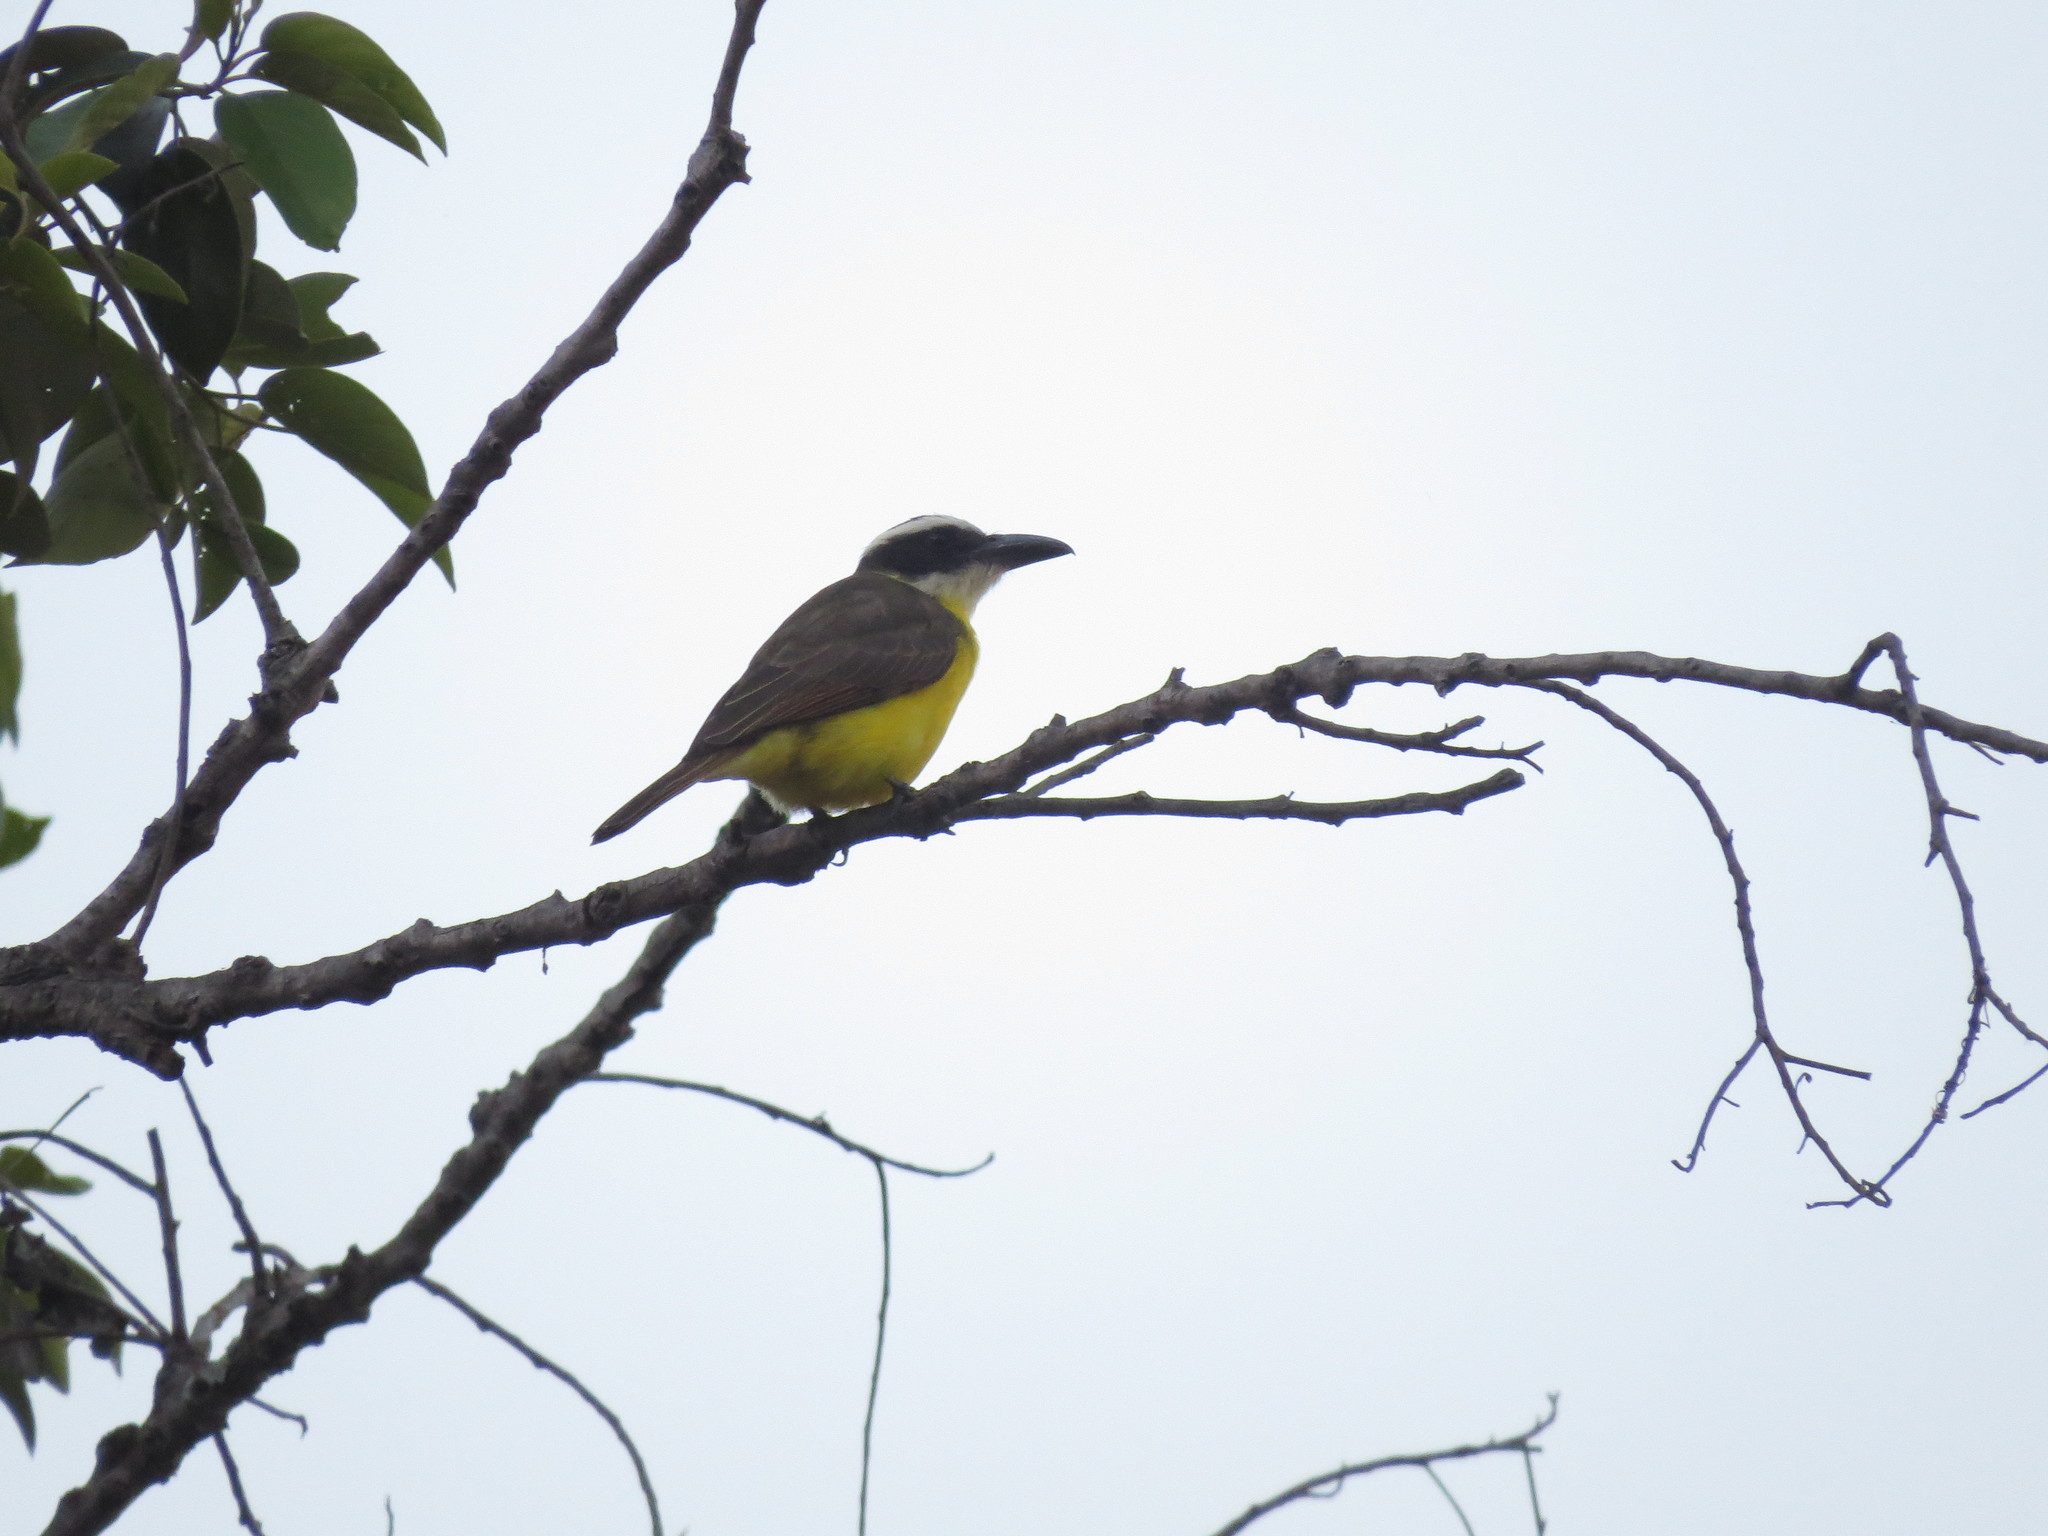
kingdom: Animalia
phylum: Chordata
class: Aves
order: Passeriformes
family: Tyrannidae
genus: Megarynchus
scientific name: Megarynchus pitangua
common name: Boat-billed flycatcher
